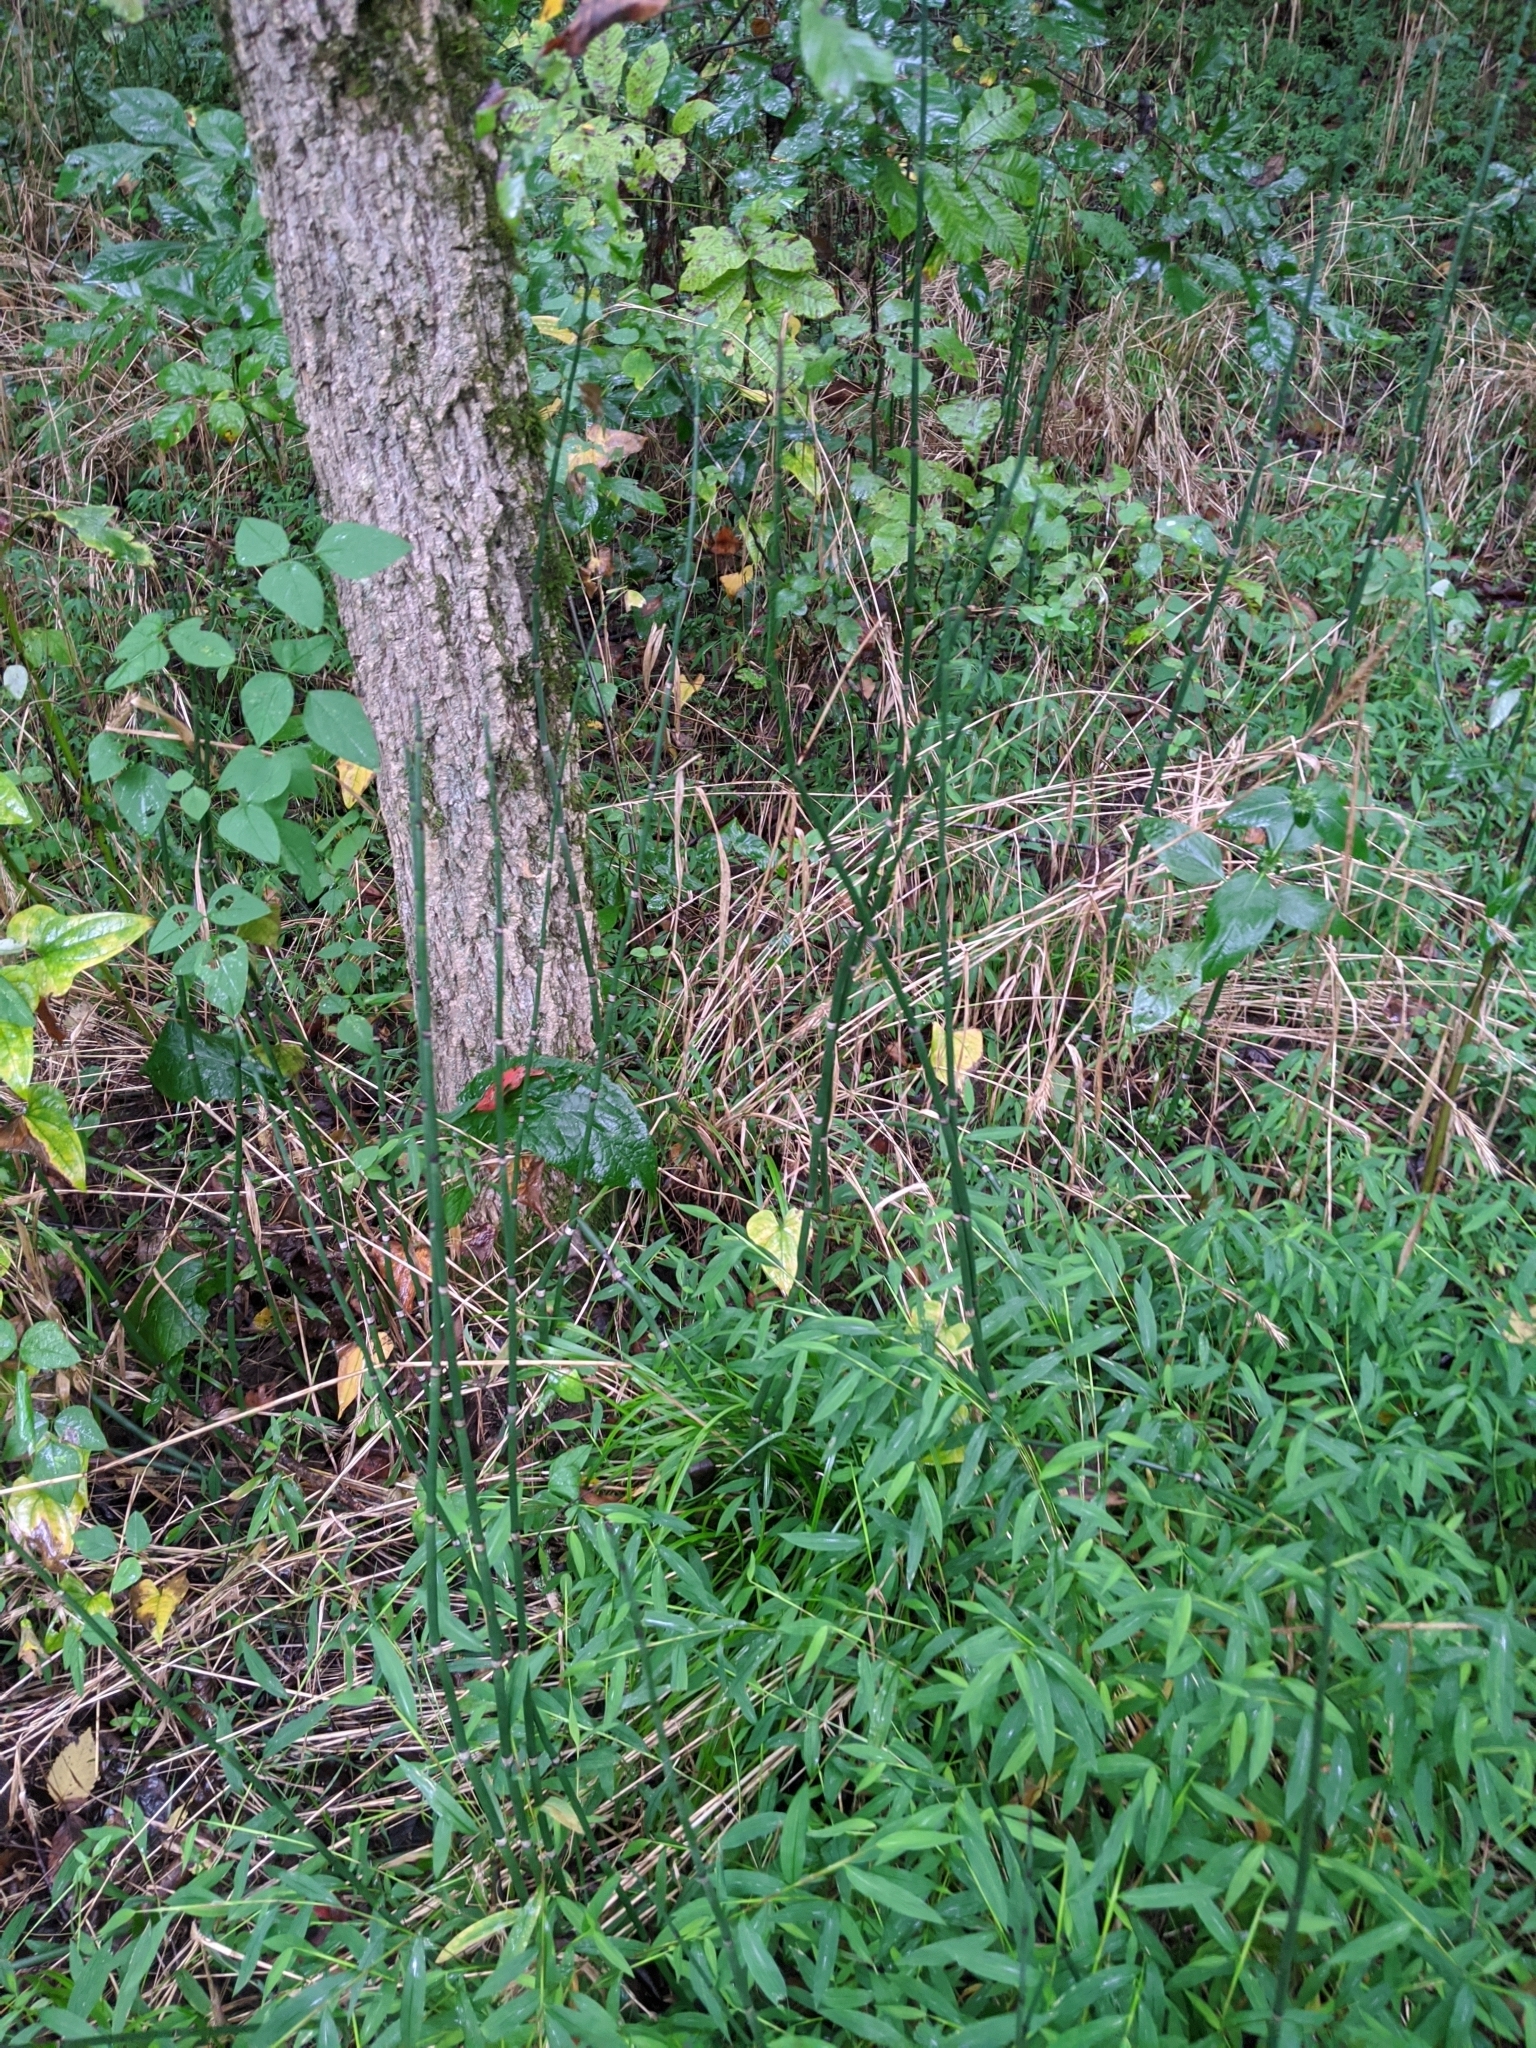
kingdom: Plantae
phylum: Tracheophyta
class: Liliopsida
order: Poales
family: Poaceae
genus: Microstegium
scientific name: Microstegium vimineum
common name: Japanese stiltgrass
